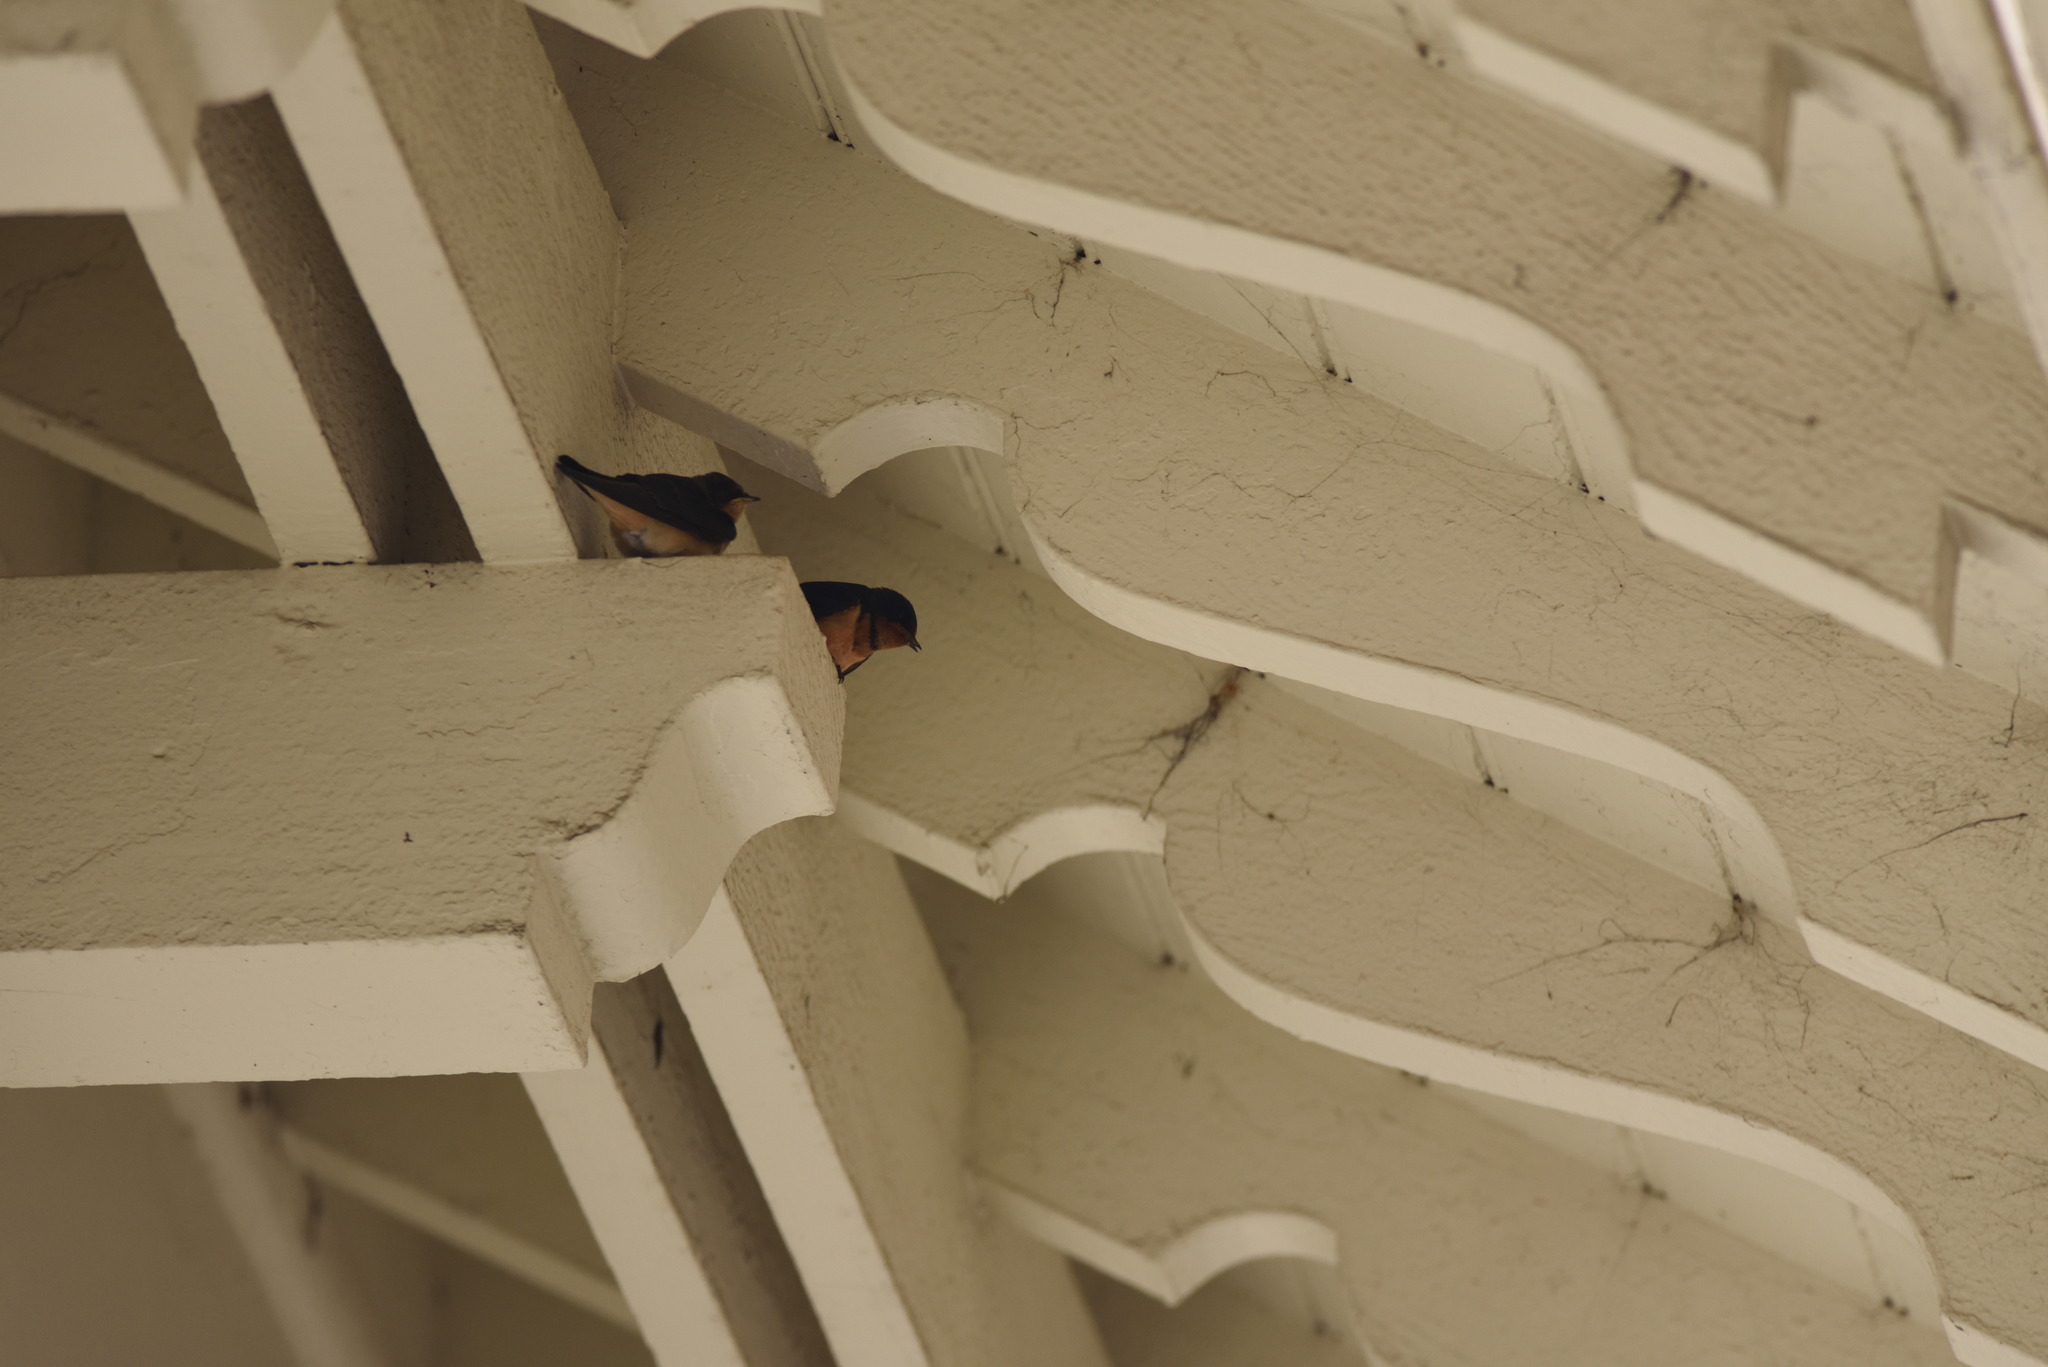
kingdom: Animalia
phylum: Chordata
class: Aves
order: Passeriformes
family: Hirundinidae
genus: Hirundo
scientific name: Hirundo rustica
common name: Barn swallow
